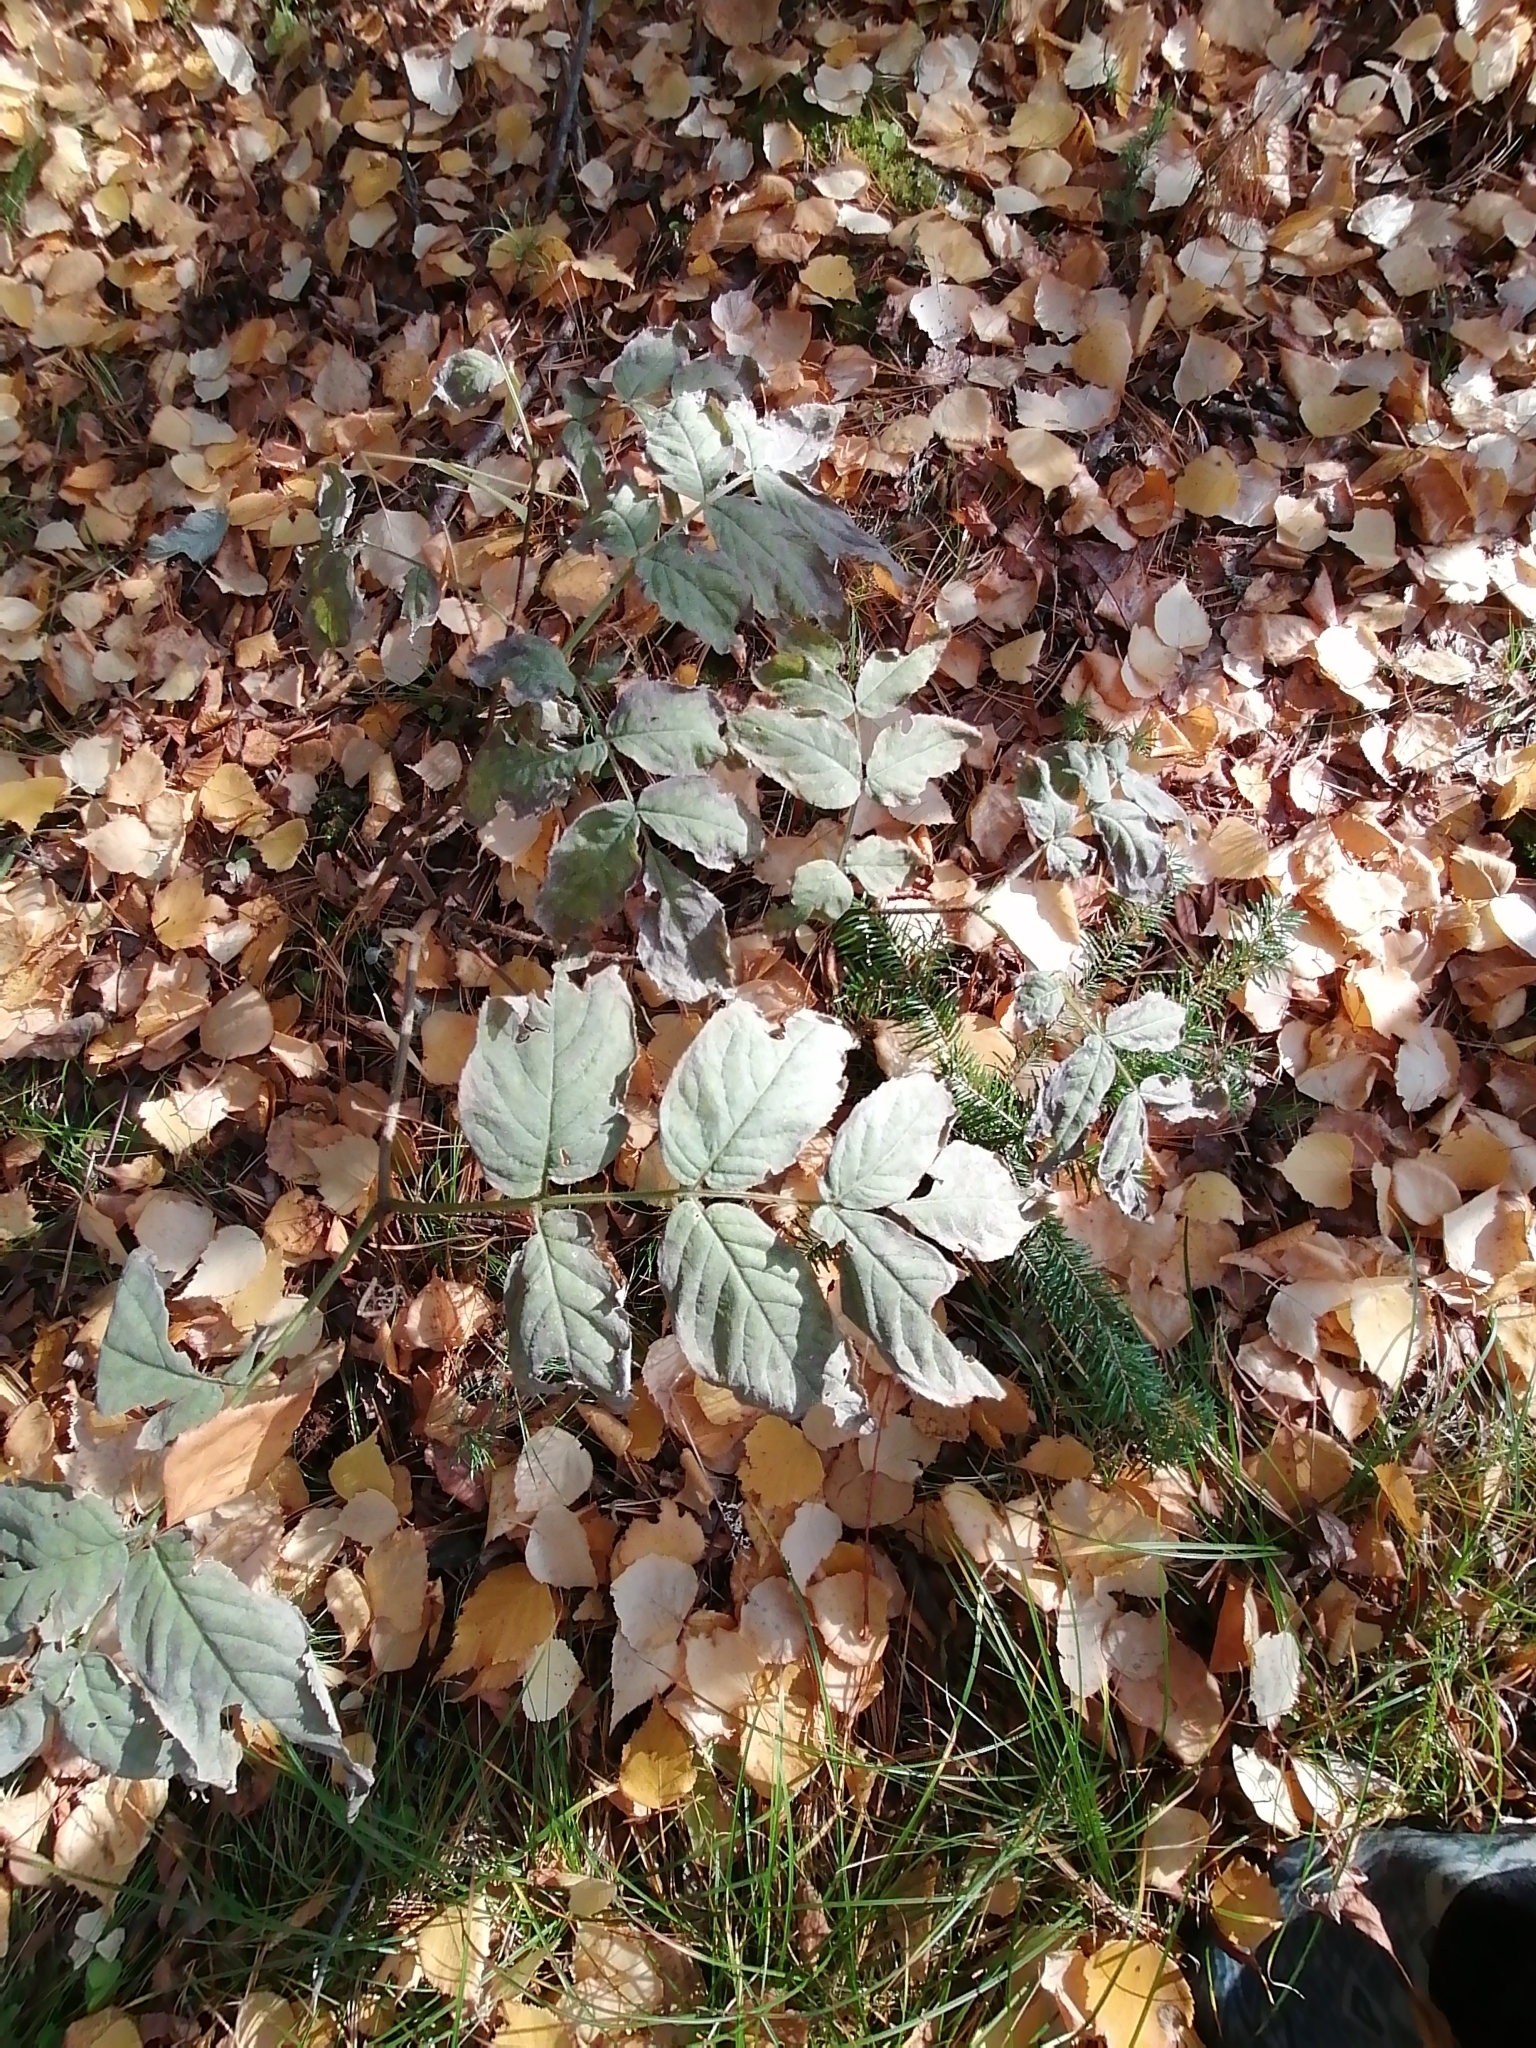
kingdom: Plantae
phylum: Tracheophyta
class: Magnoliopsida
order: Dipsacales
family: Viburnaceae
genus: Sambucus
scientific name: Sambucus sibirica
